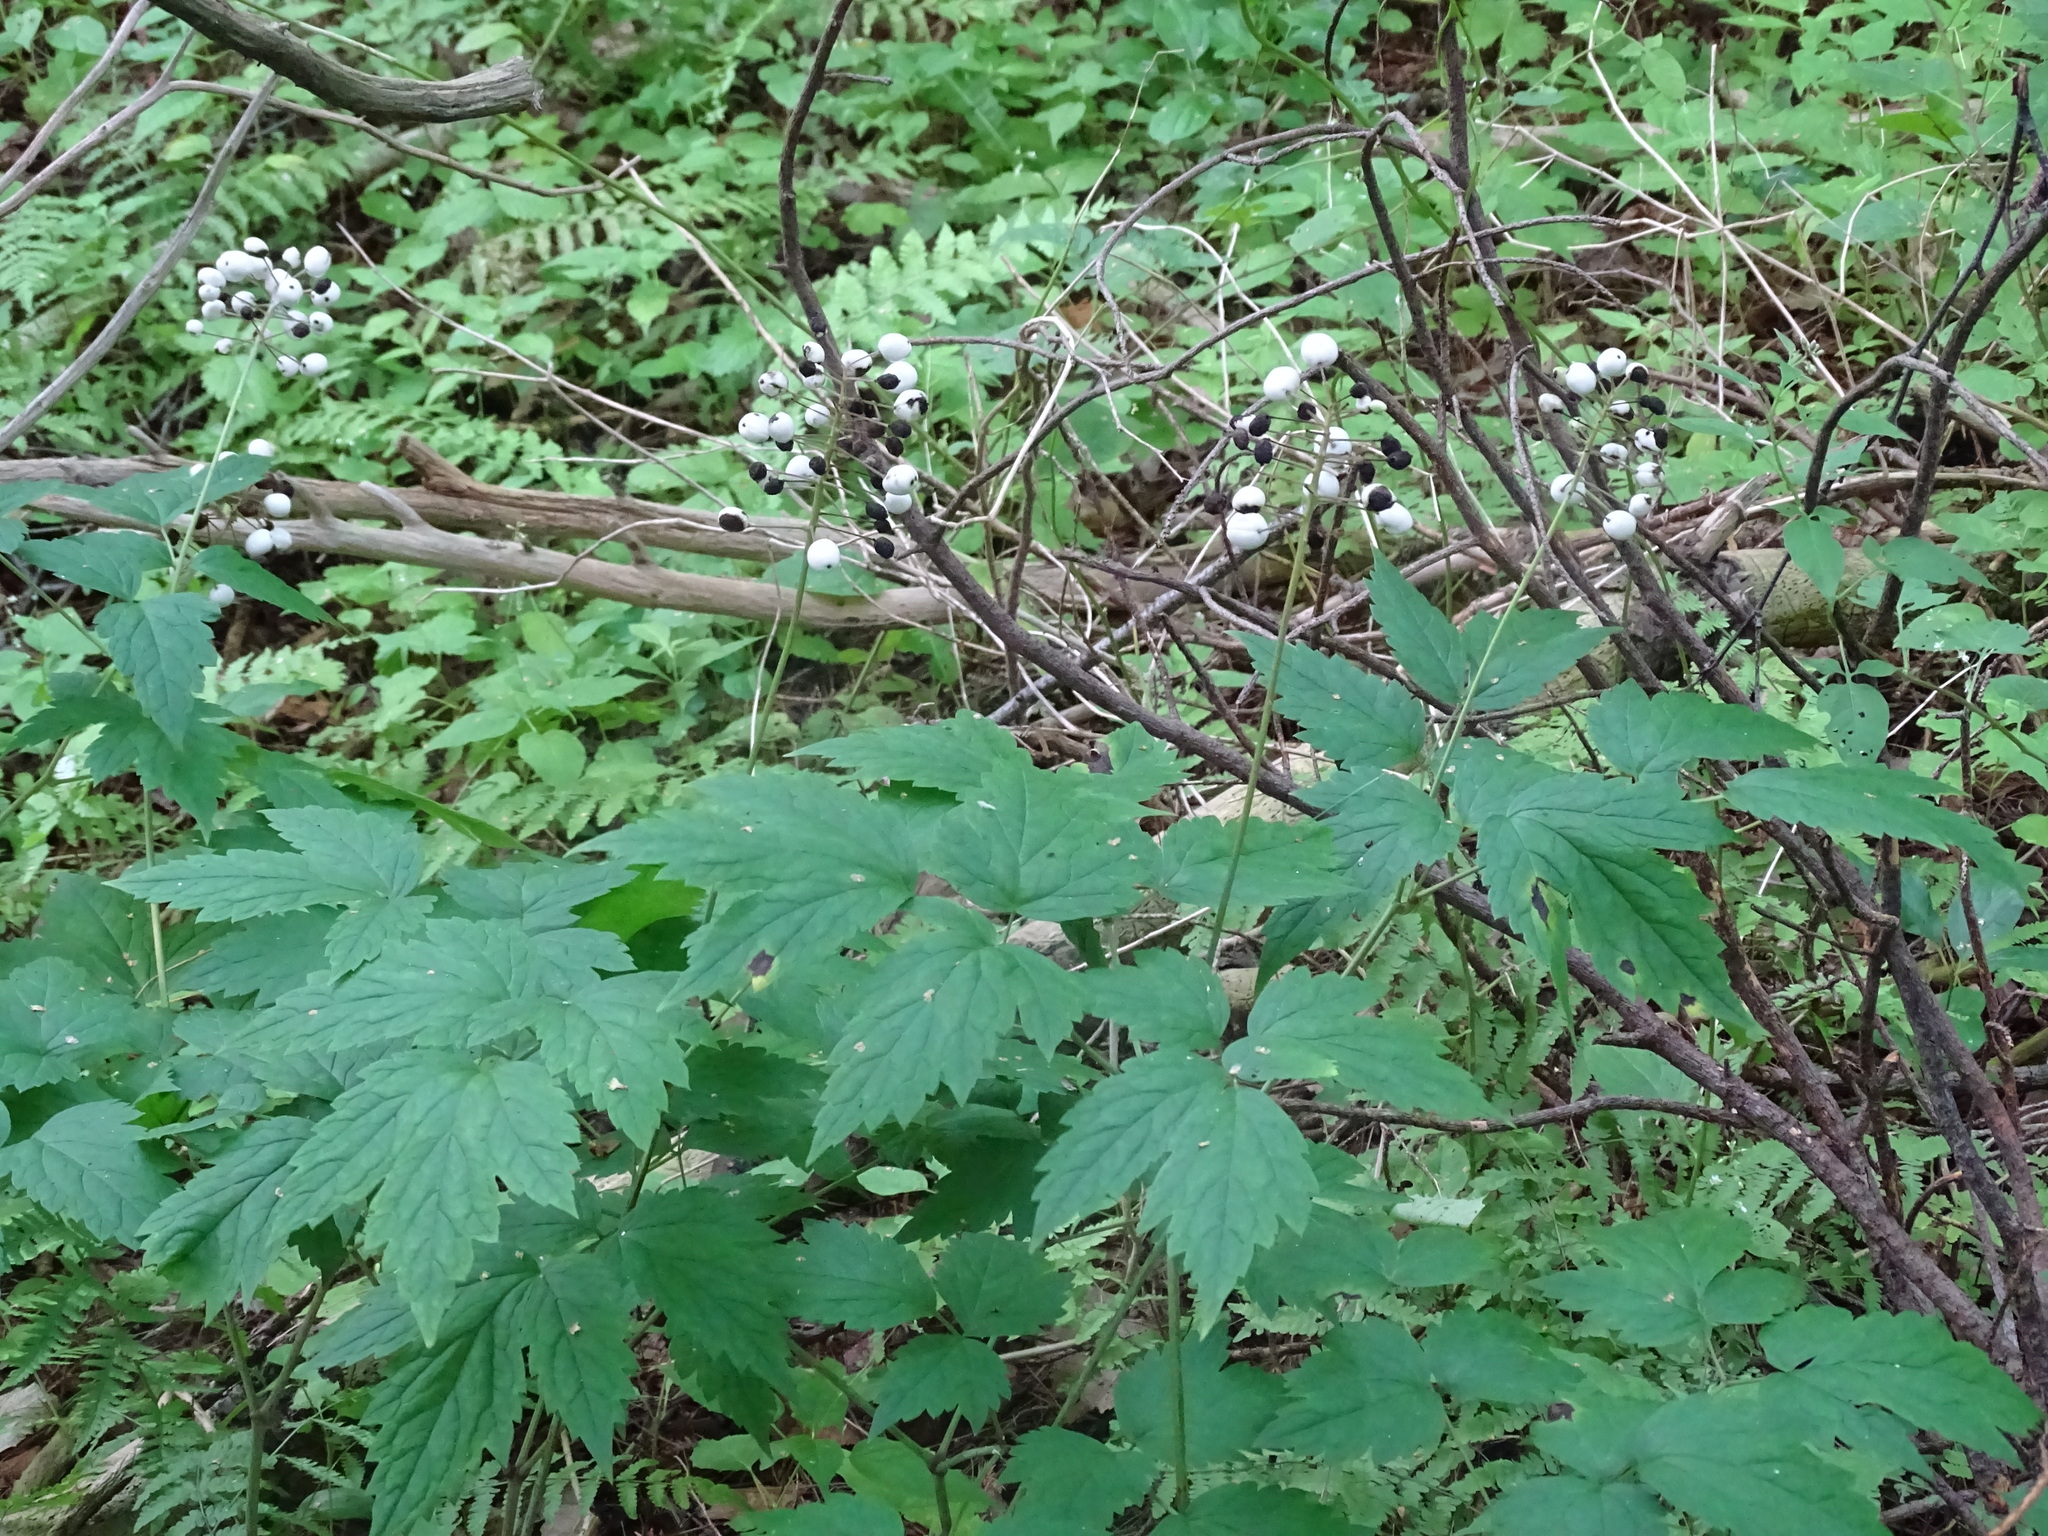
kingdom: Plantae
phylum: Tracheophyta
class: Magnoliopsida
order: Ranunculales
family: Ranunculaceae
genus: Actaea
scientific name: Actaea rubra
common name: Red baneberry
